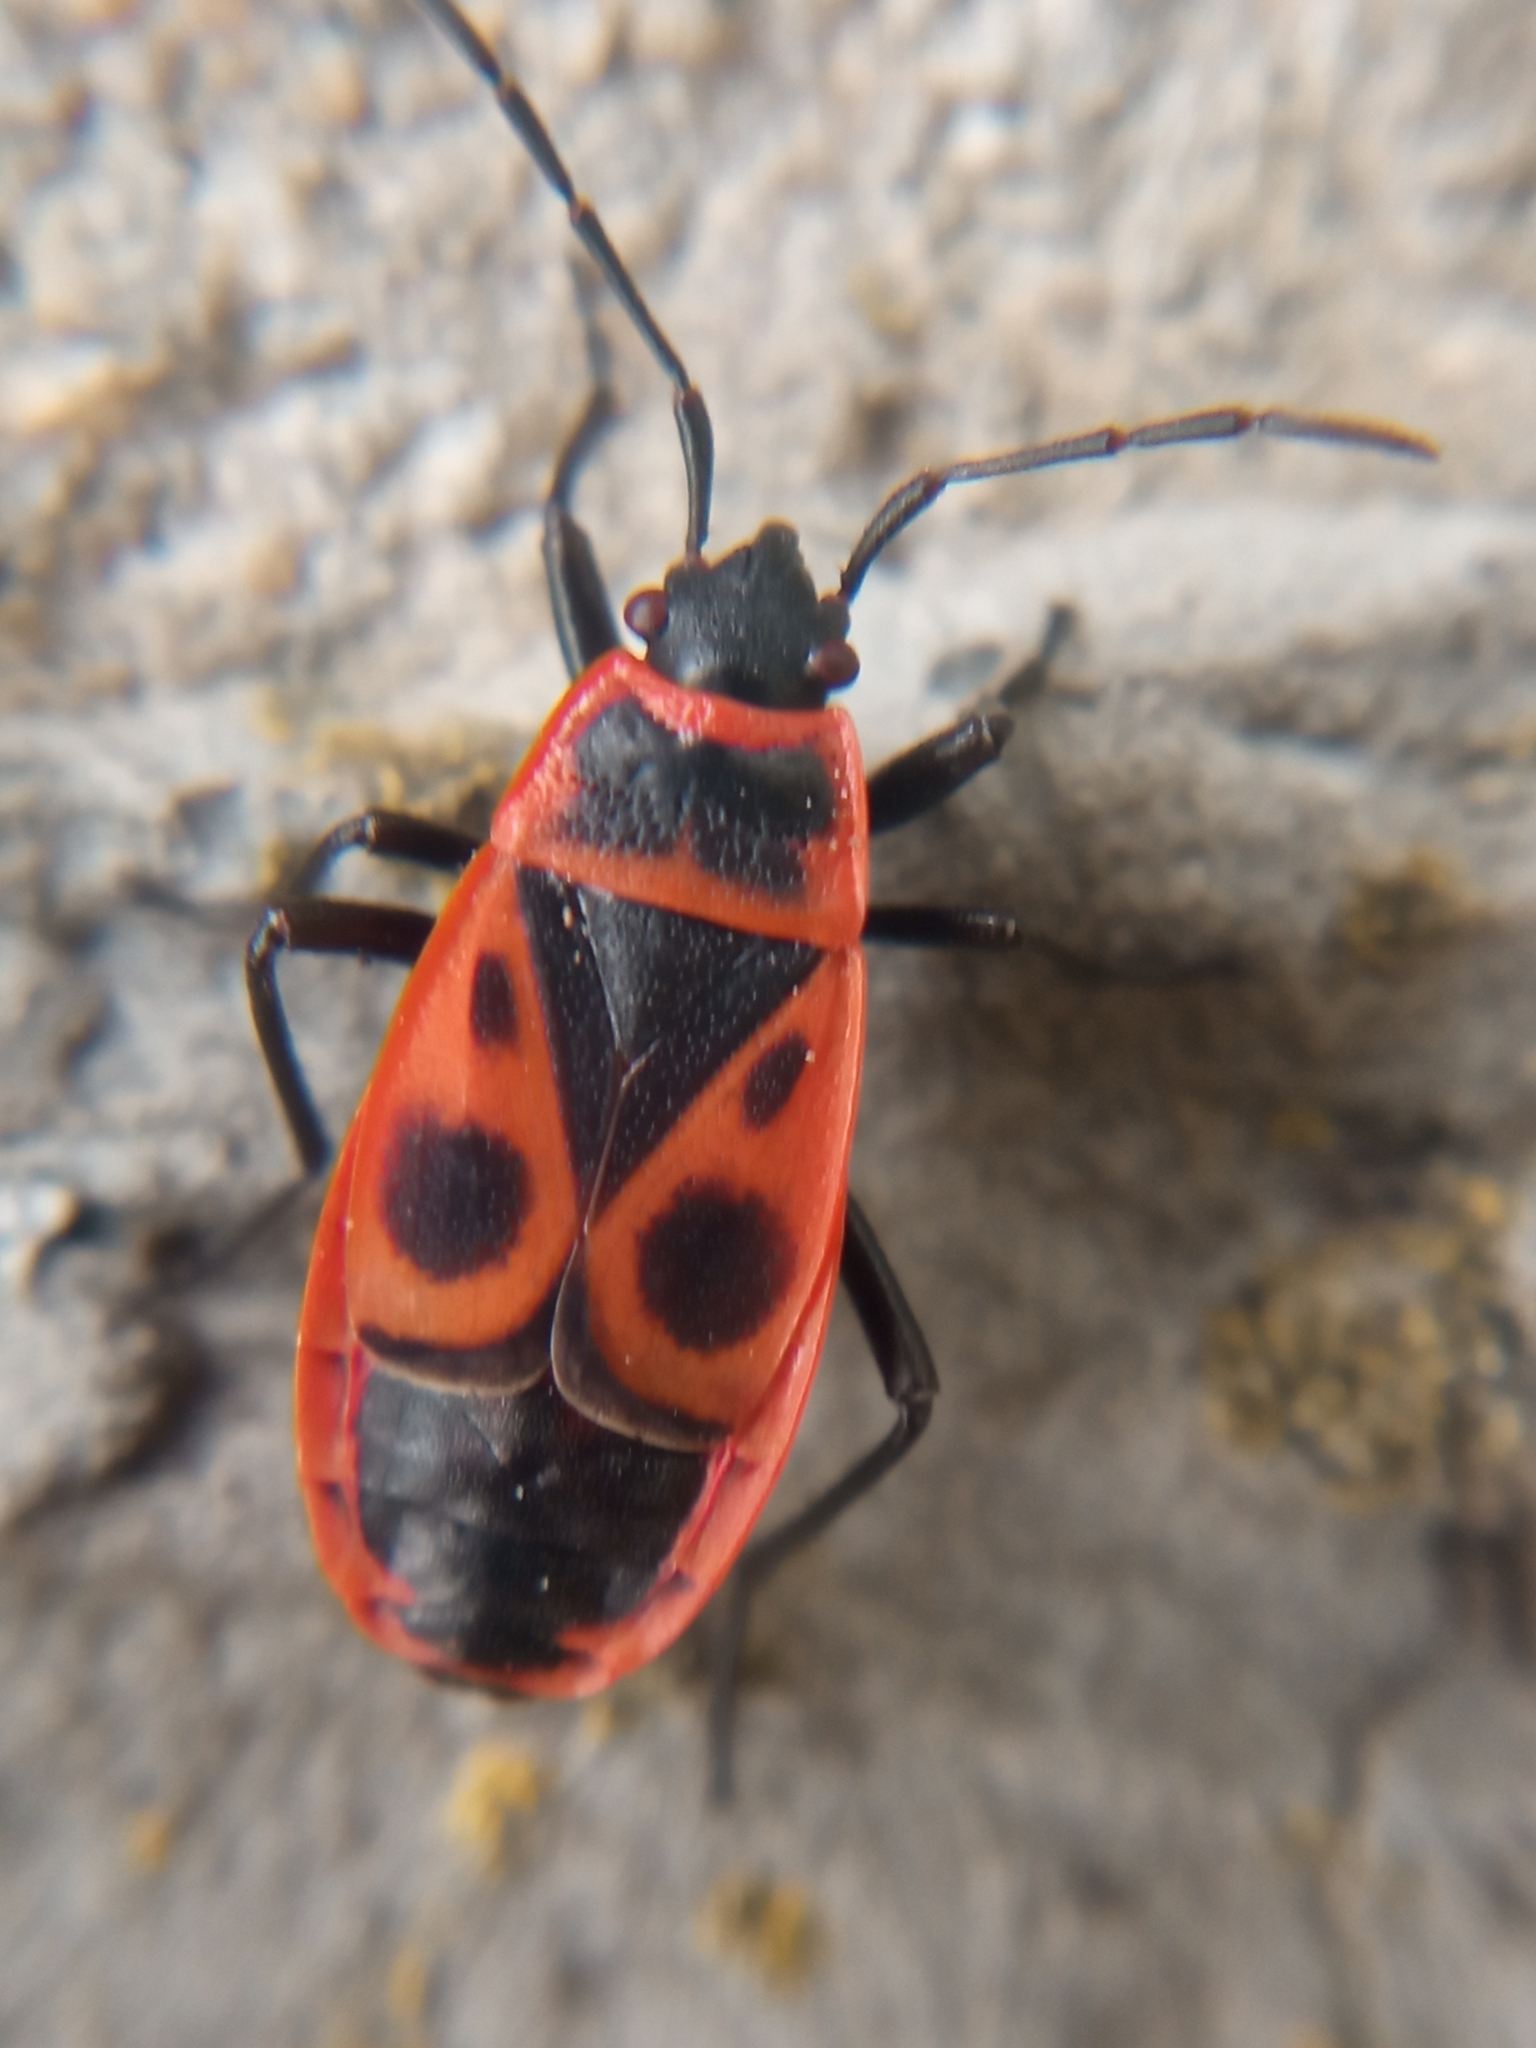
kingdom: Animalia
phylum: Arthropoda
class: Insecta
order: Hemiptera
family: Pyrrhocoridae
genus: Pyrrhocoris
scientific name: Pyrrhocoris apterus
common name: Firebug
